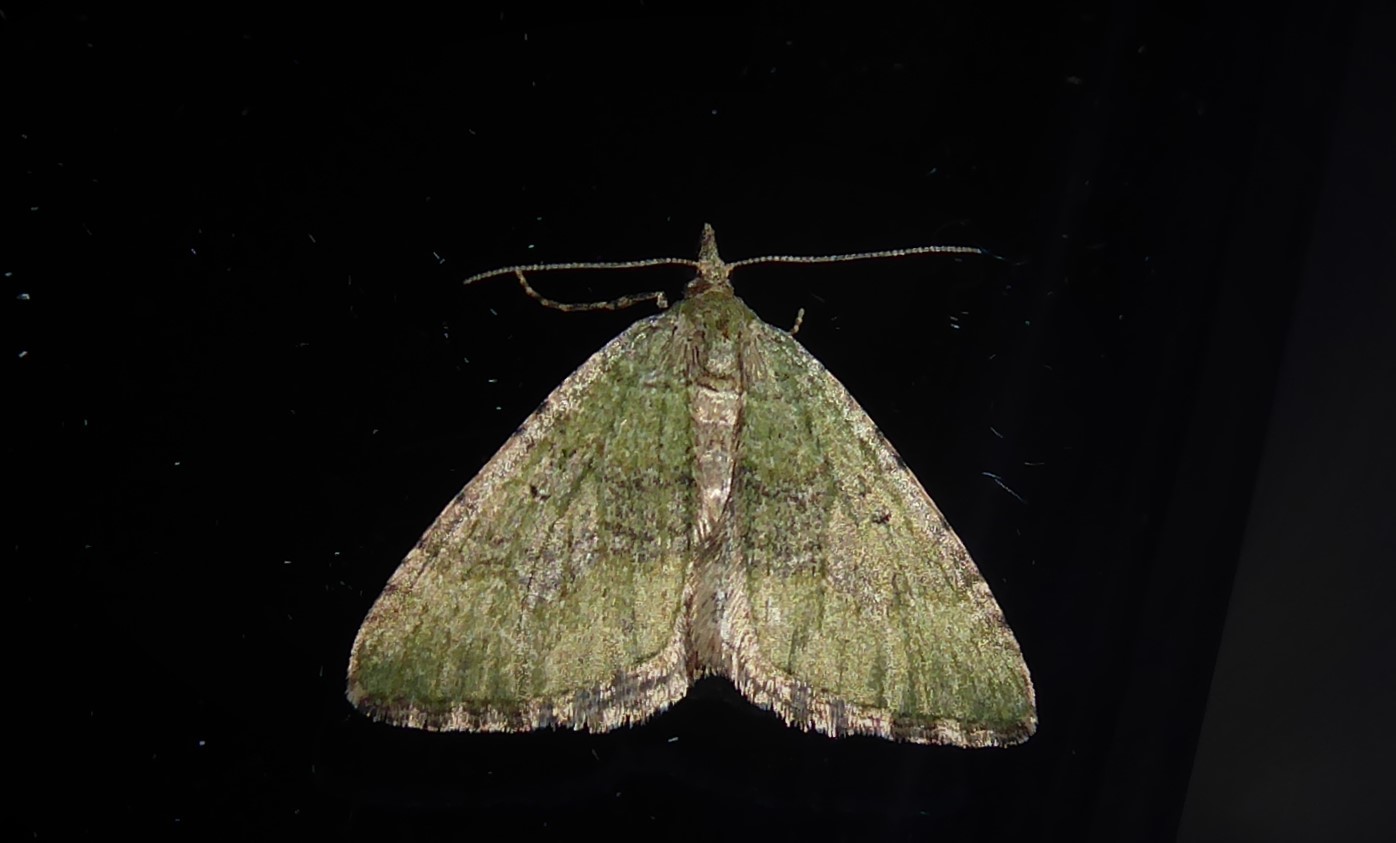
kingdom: Animalia
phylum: Arthropoda
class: Insecta
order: Lepidoptera
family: Geometridae
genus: Epyaxa
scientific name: Epyaxa rosearia
